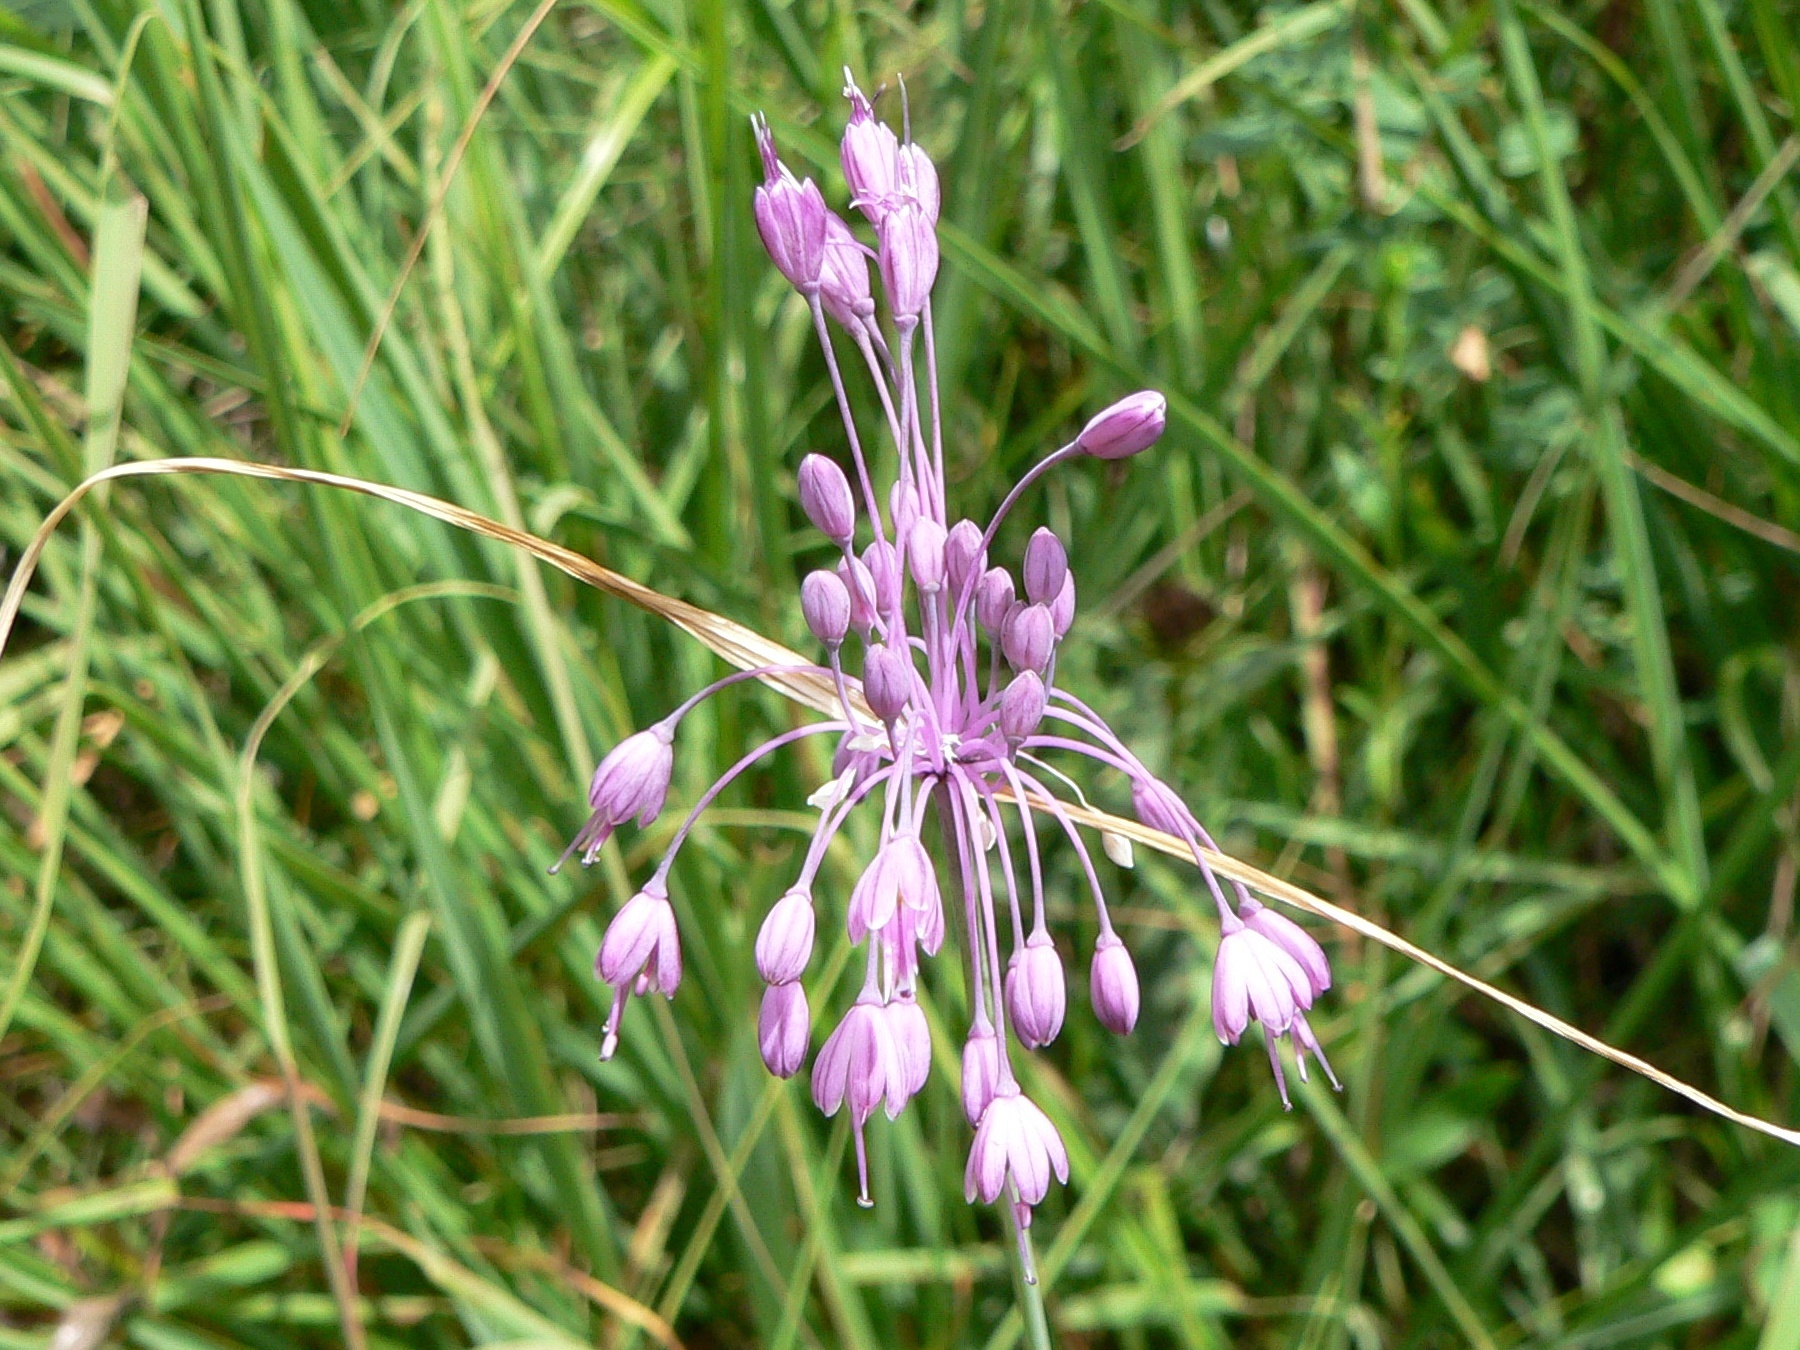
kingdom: Plantae
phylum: Tracheophyta
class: Liliopsida
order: Asparagales
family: Amaryllidaceae
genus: Allium
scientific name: Allium coloratum
